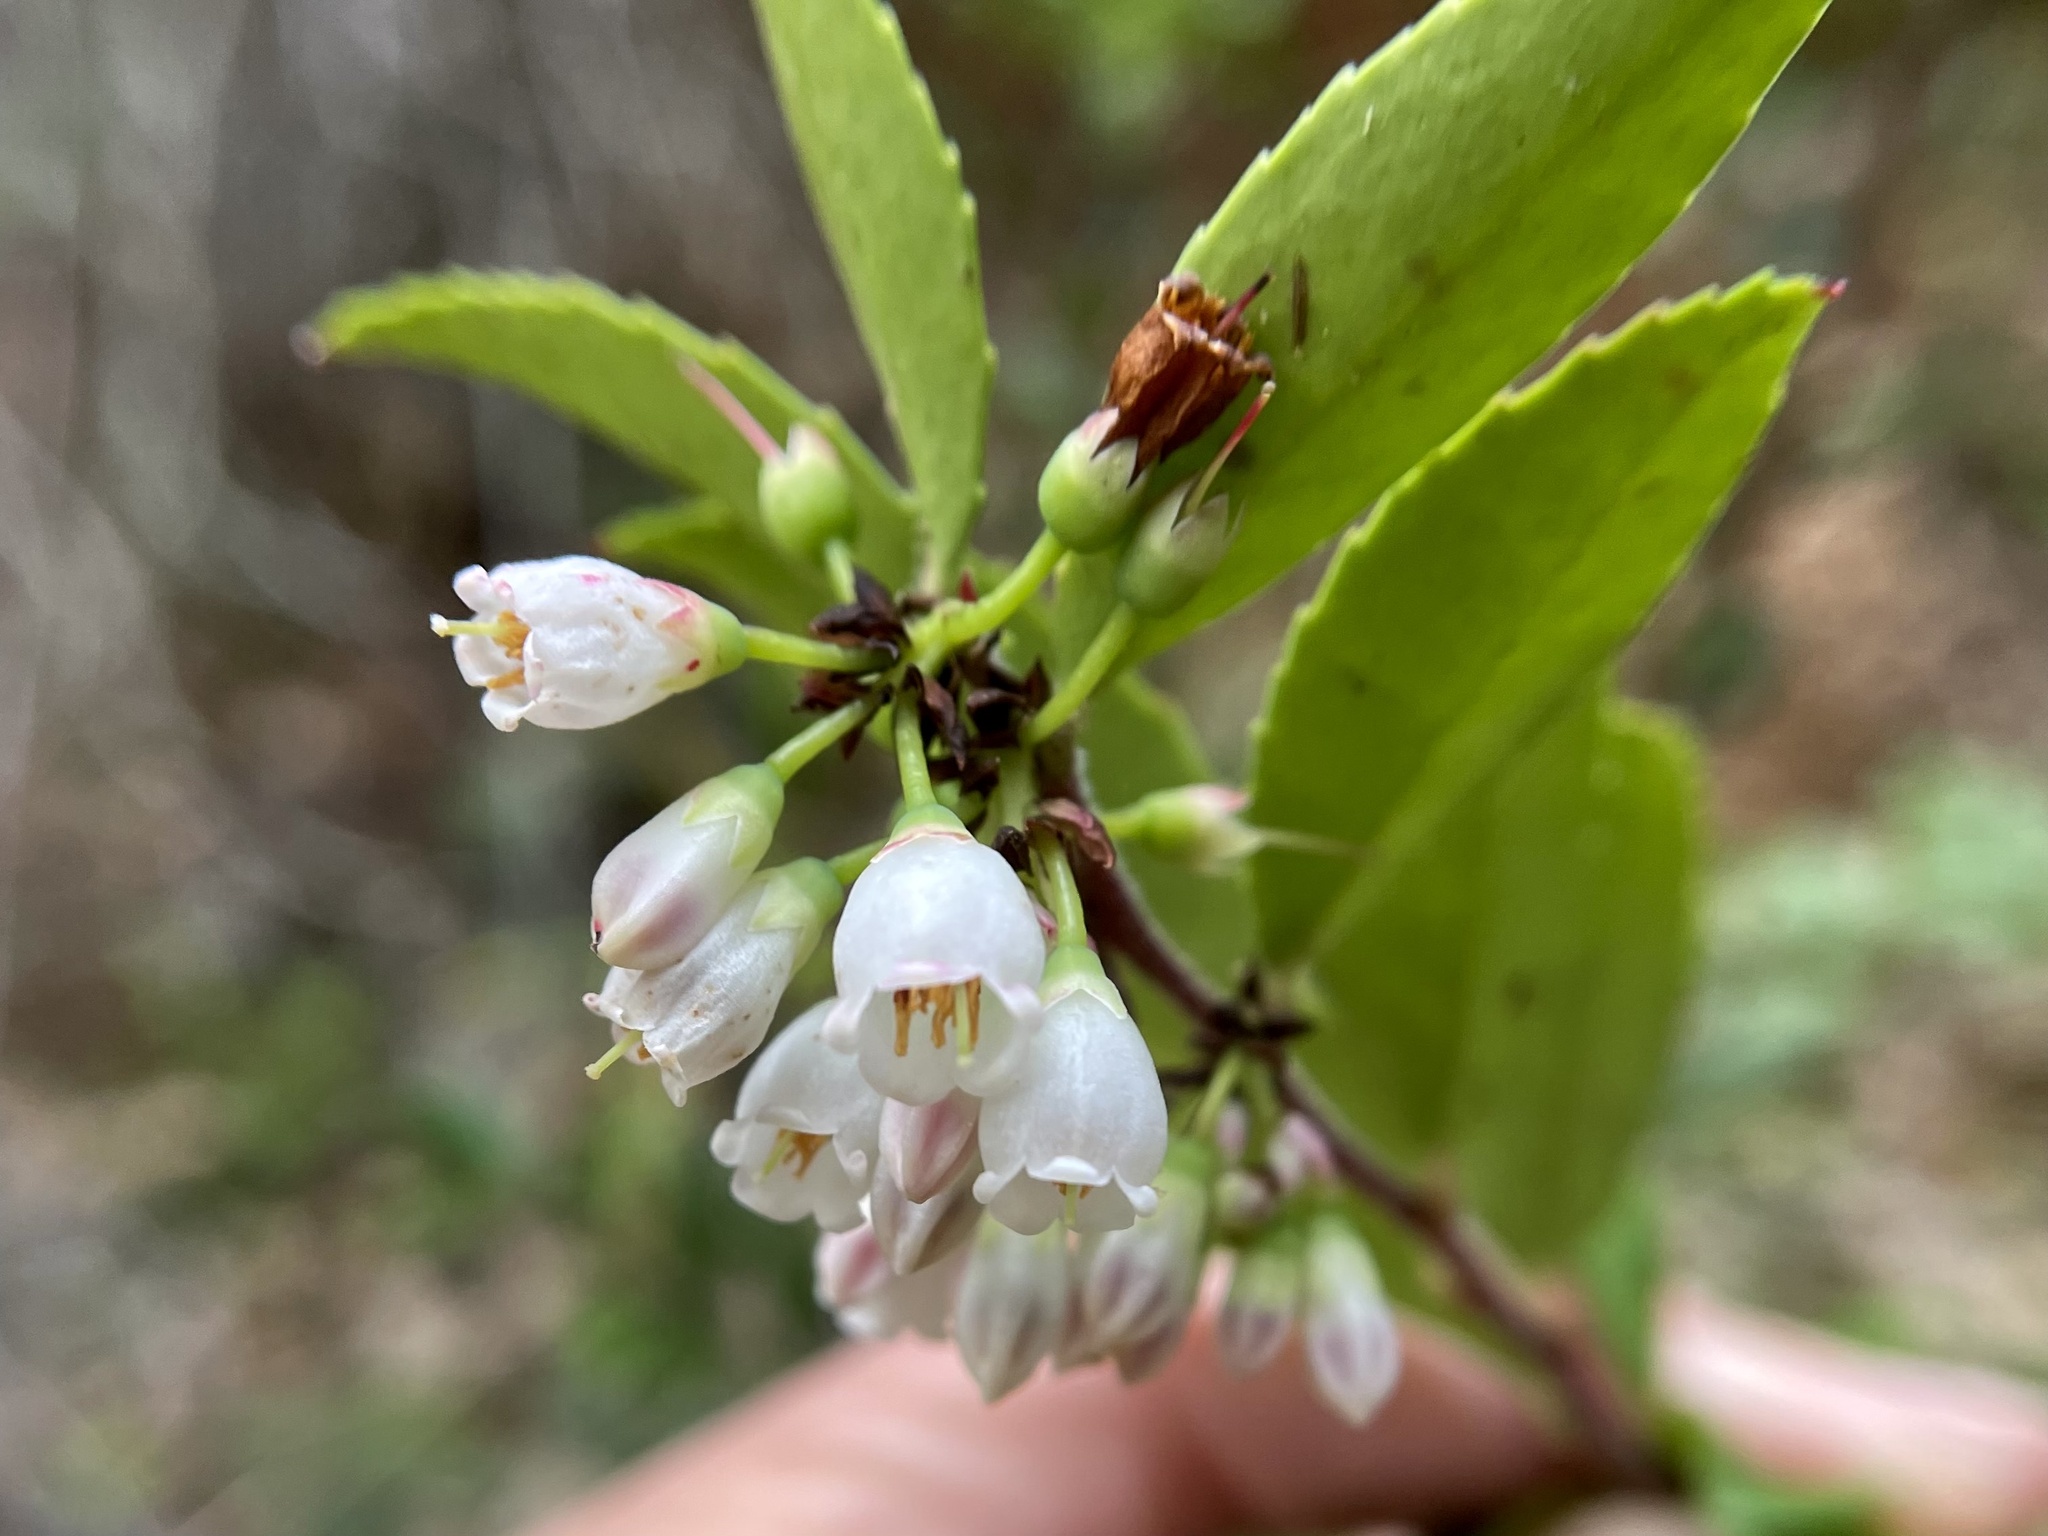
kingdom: Plantae
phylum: Tracheophyta
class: Magnoliopsida
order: Ericales
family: Ericaceae
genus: Vaccinium
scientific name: Vaccinium ovatum
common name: California-huckleberry
